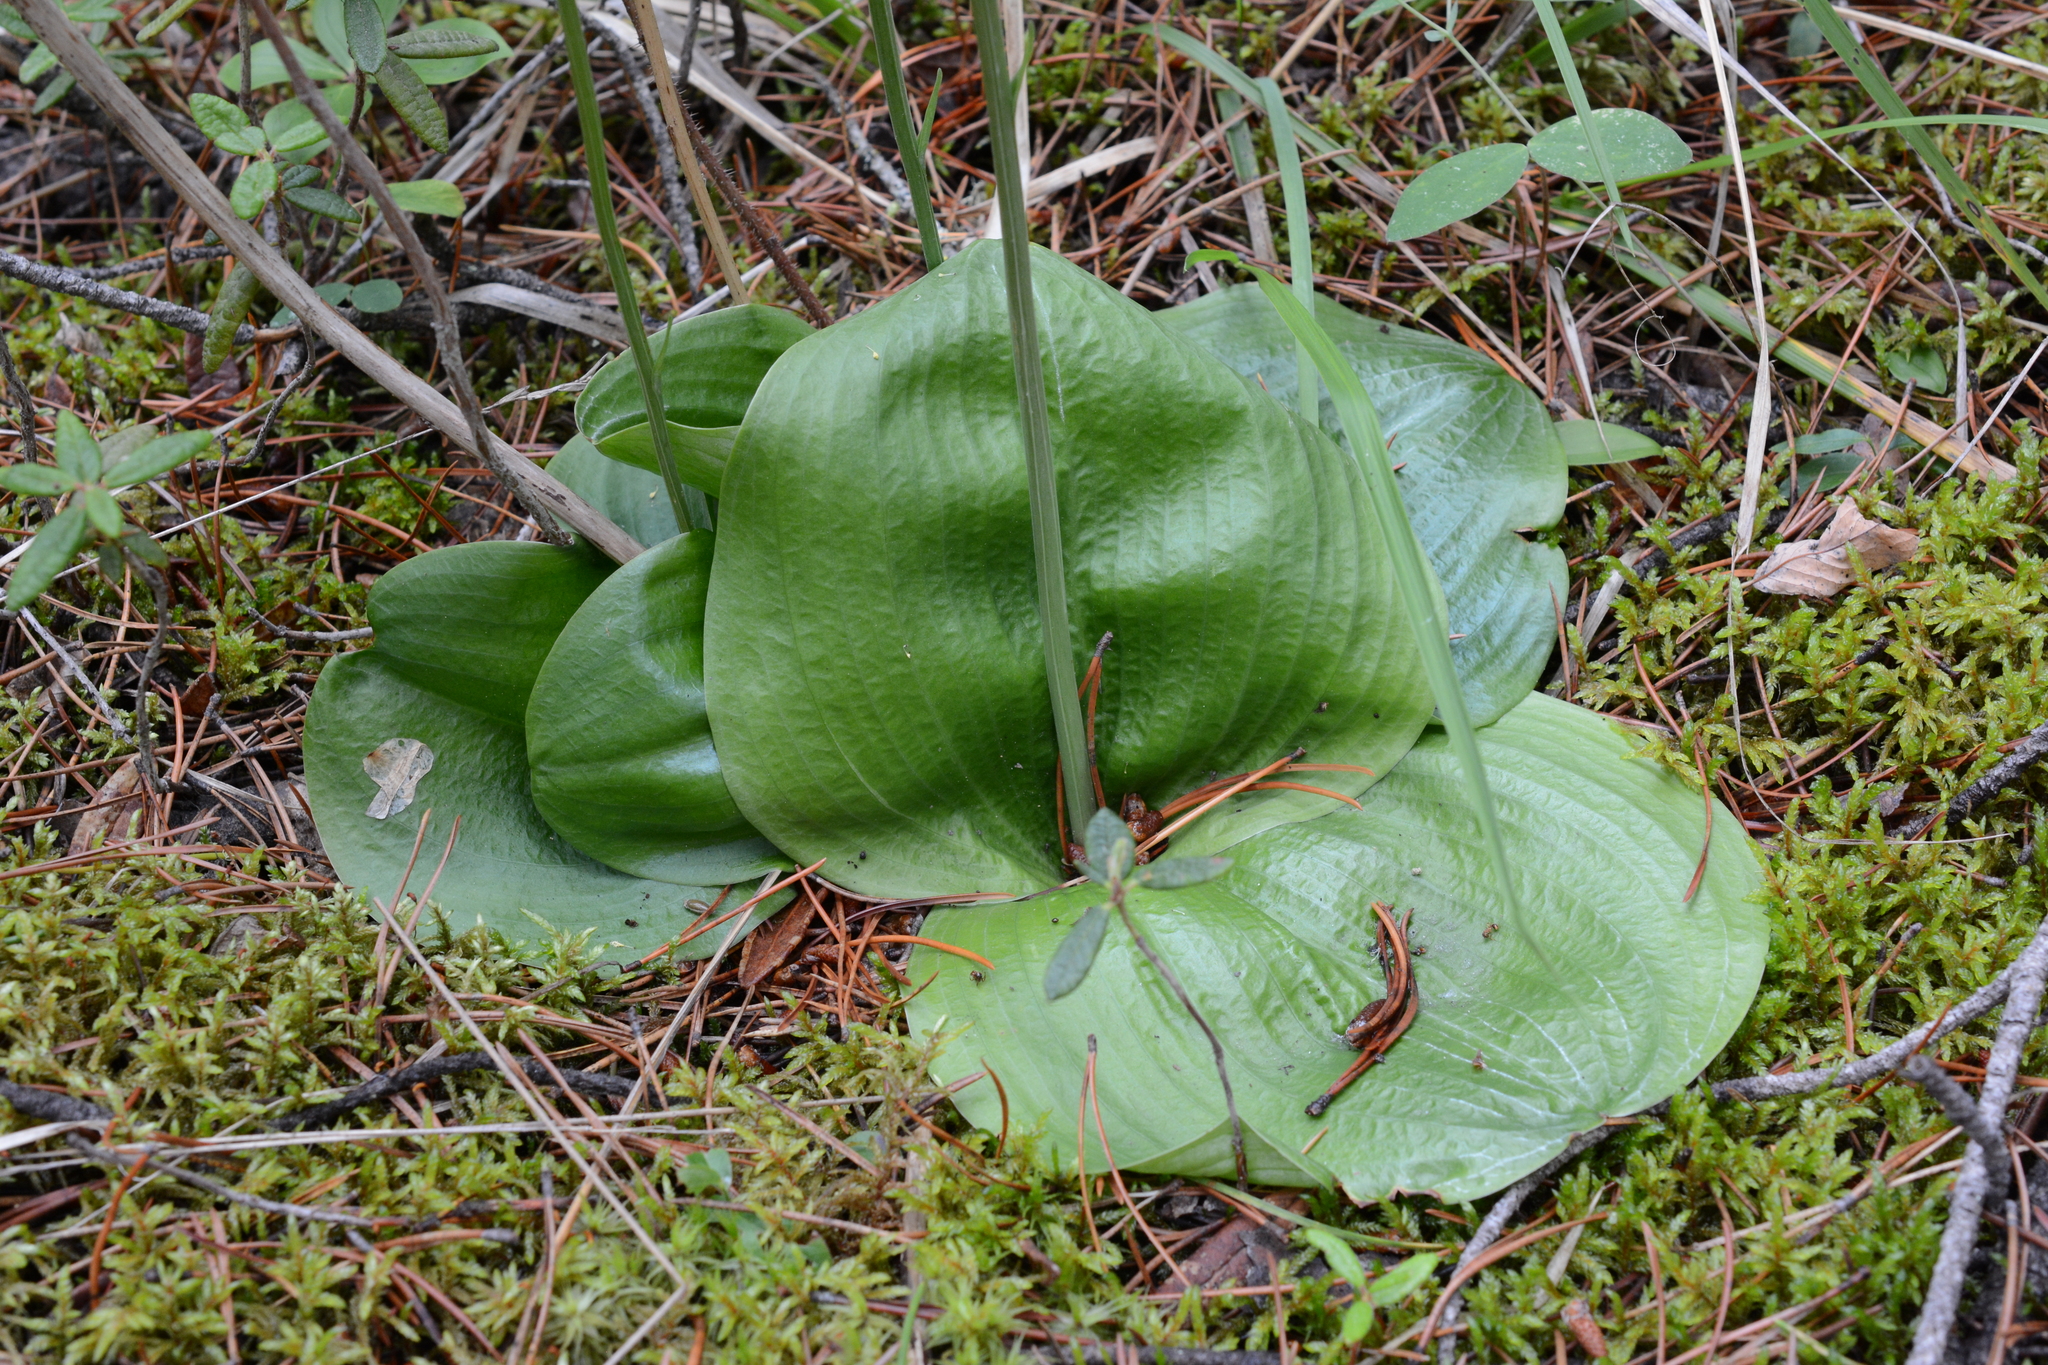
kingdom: Plantae
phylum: Tracheophyta
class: Liliopsida
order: Asparagales
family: Orchidaceae
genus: Platanthera
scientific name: Platanthera orbiculata
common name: Large round-leaved orchid
